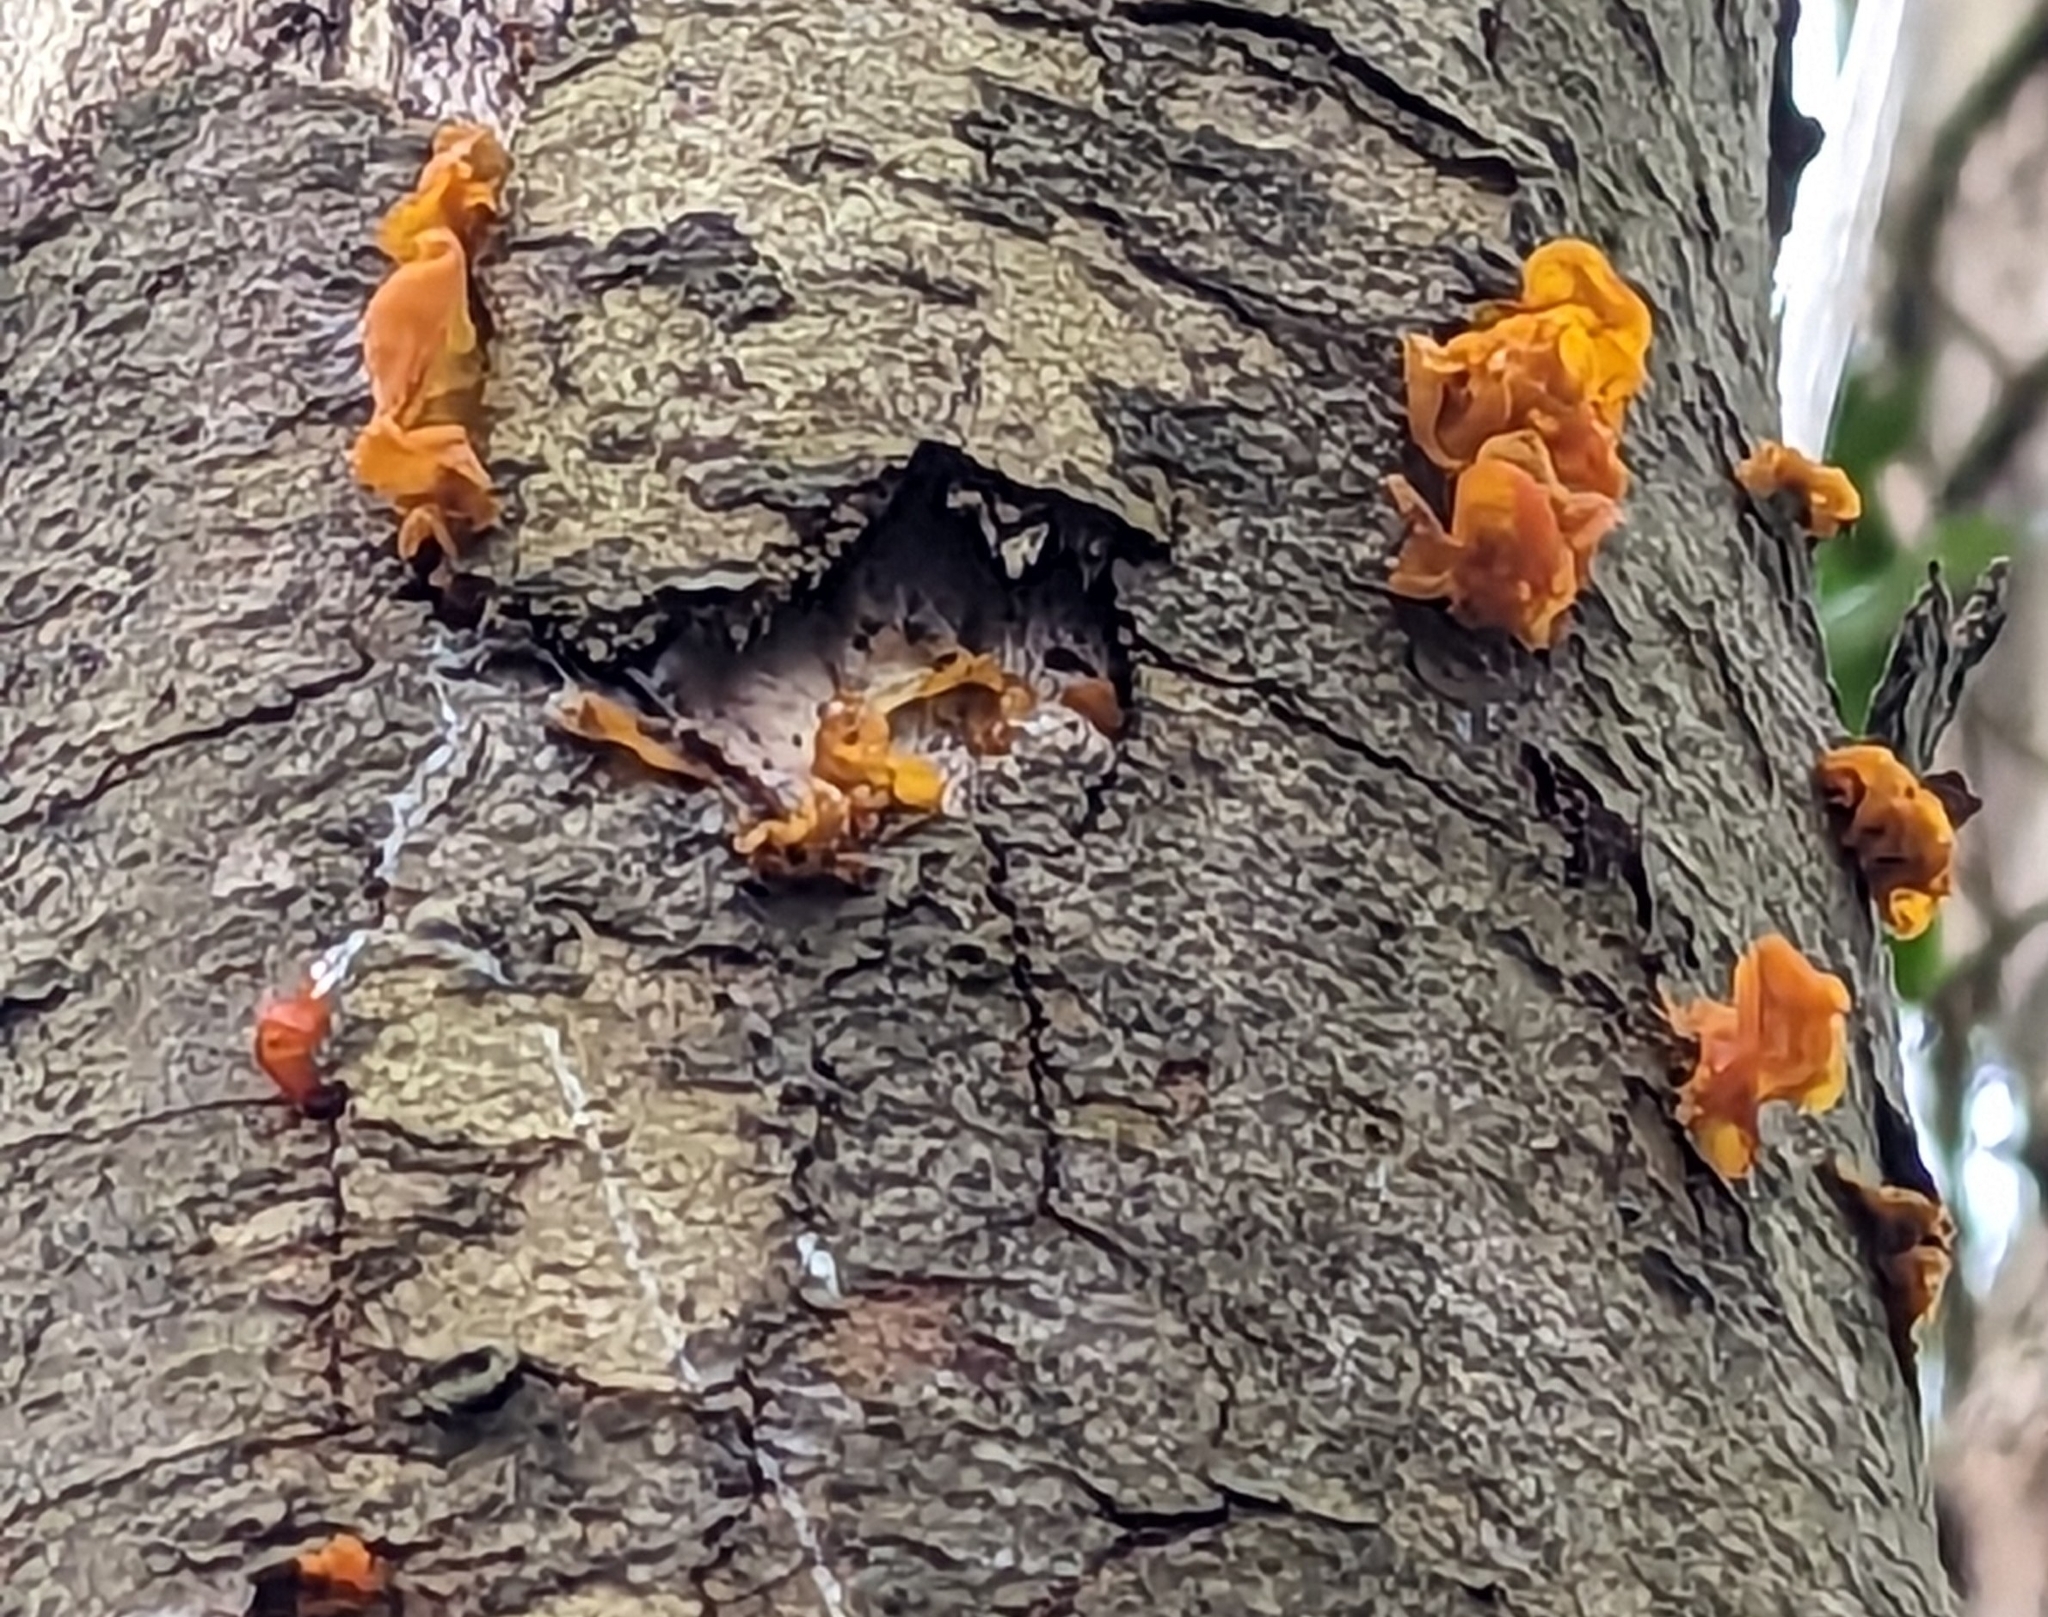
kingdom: Fungi
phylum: Basidiomycota
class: Tremellomycetes
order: Tremellales
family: Tremellaceae
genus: Tremella
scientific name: Tremella mesenterica
